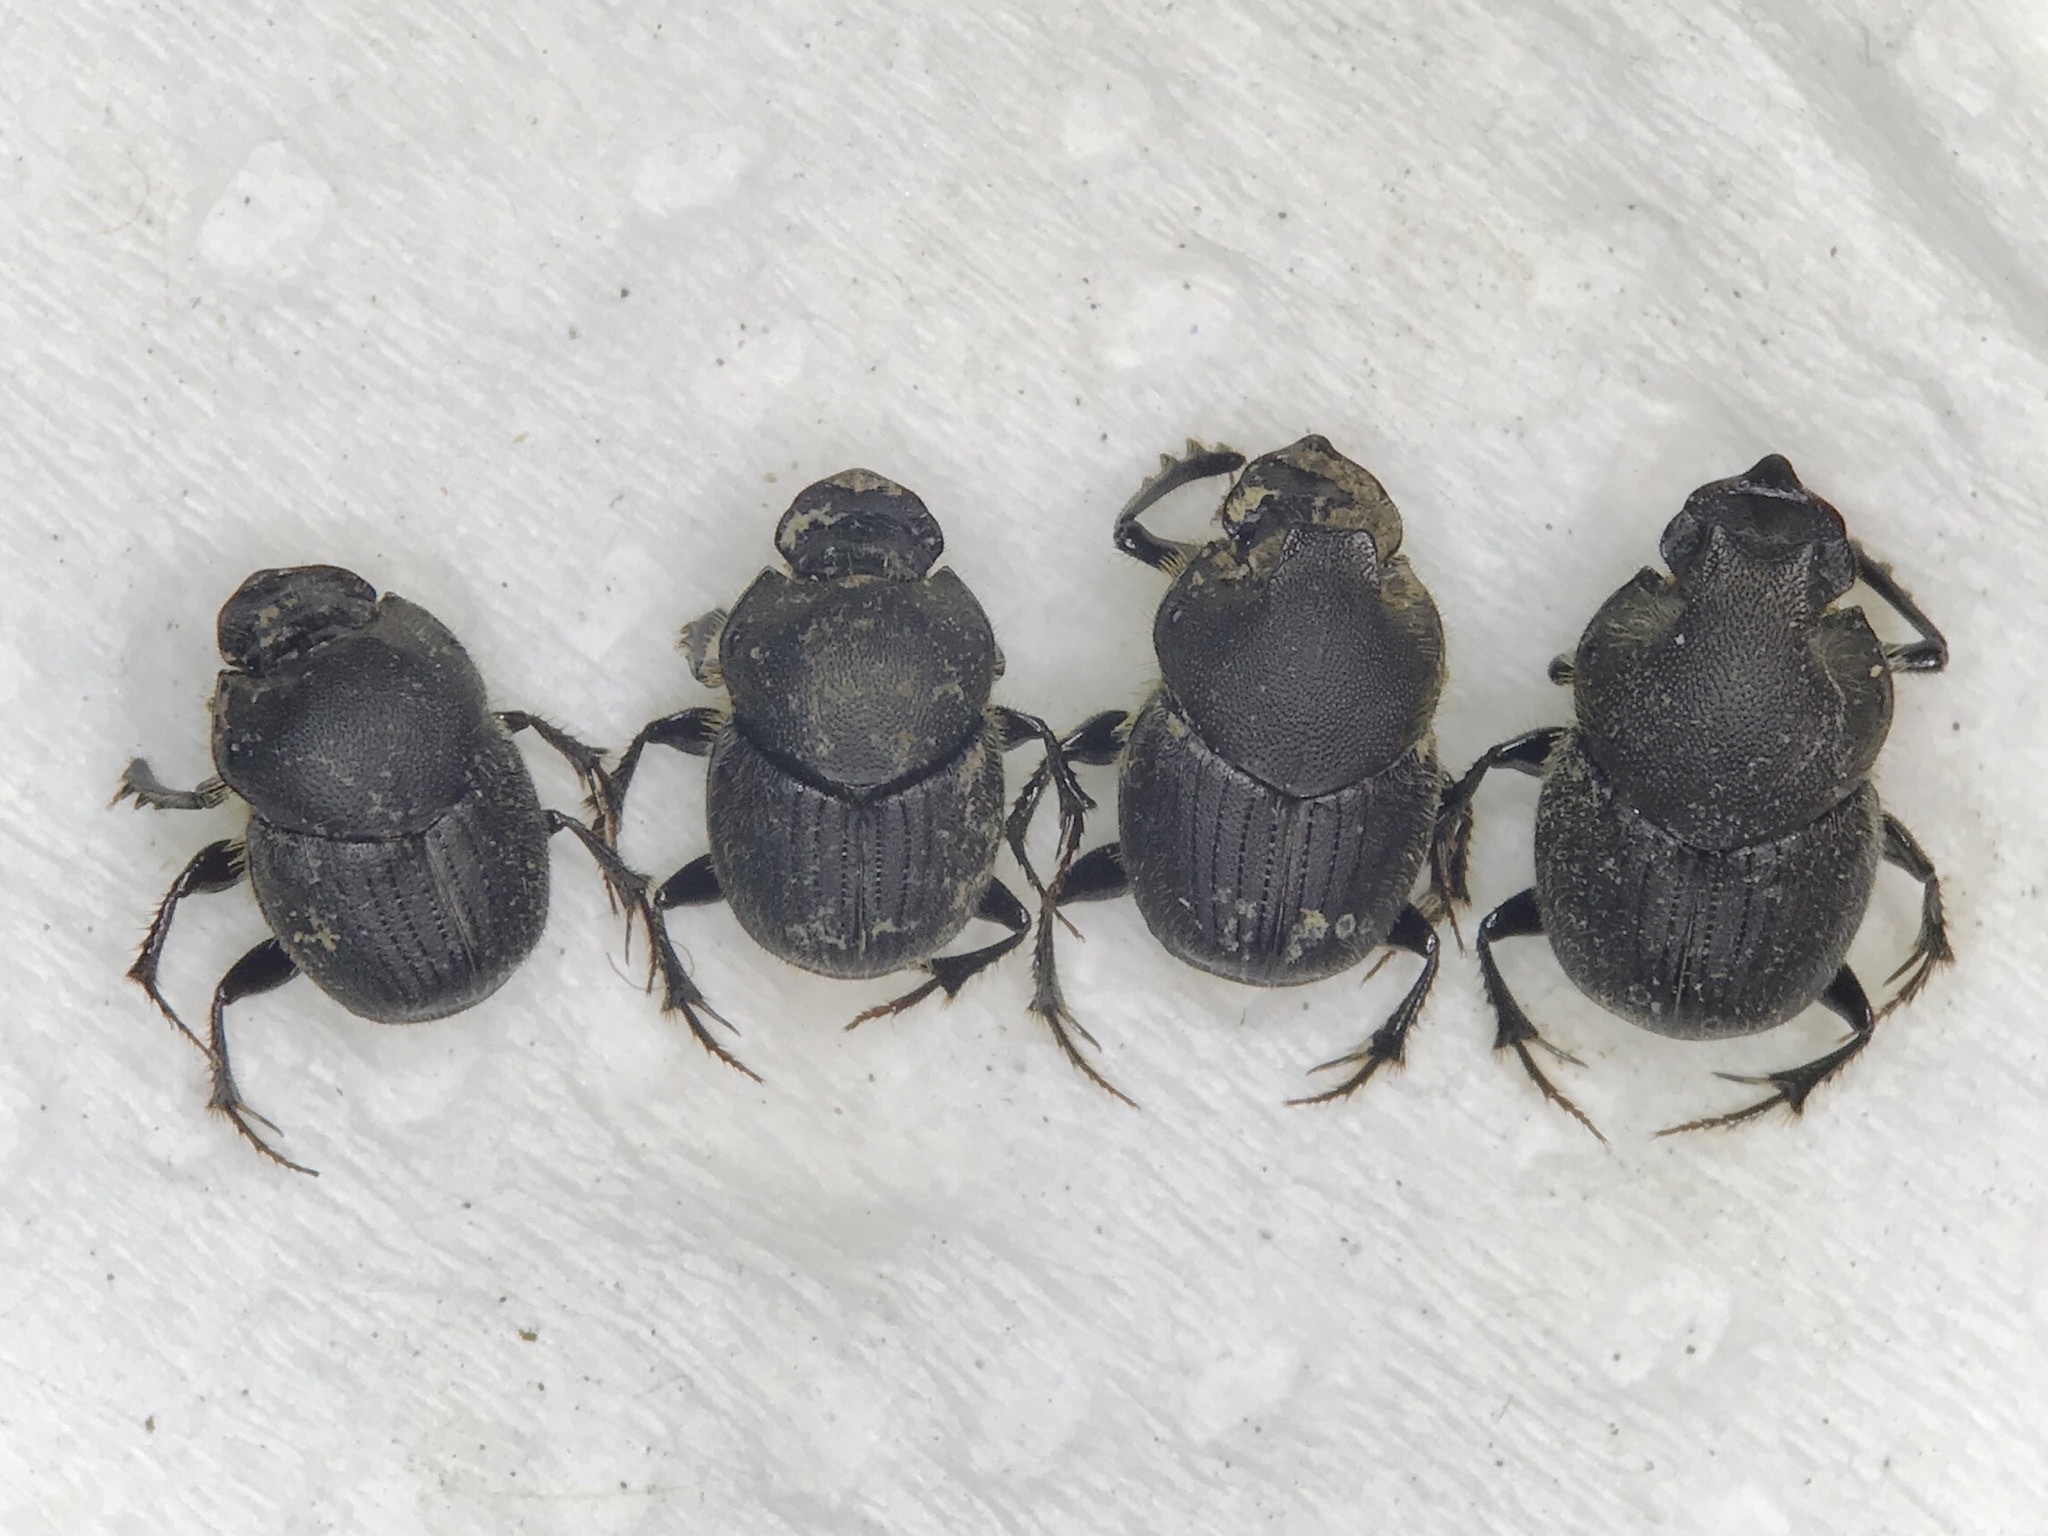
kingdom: Animalia
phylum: Arthropoda
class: Insecta
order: Coleoptera
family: Scarabaeidae
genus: Onthophagus
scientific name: Onthophagus hecate
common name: Scooped scarab
